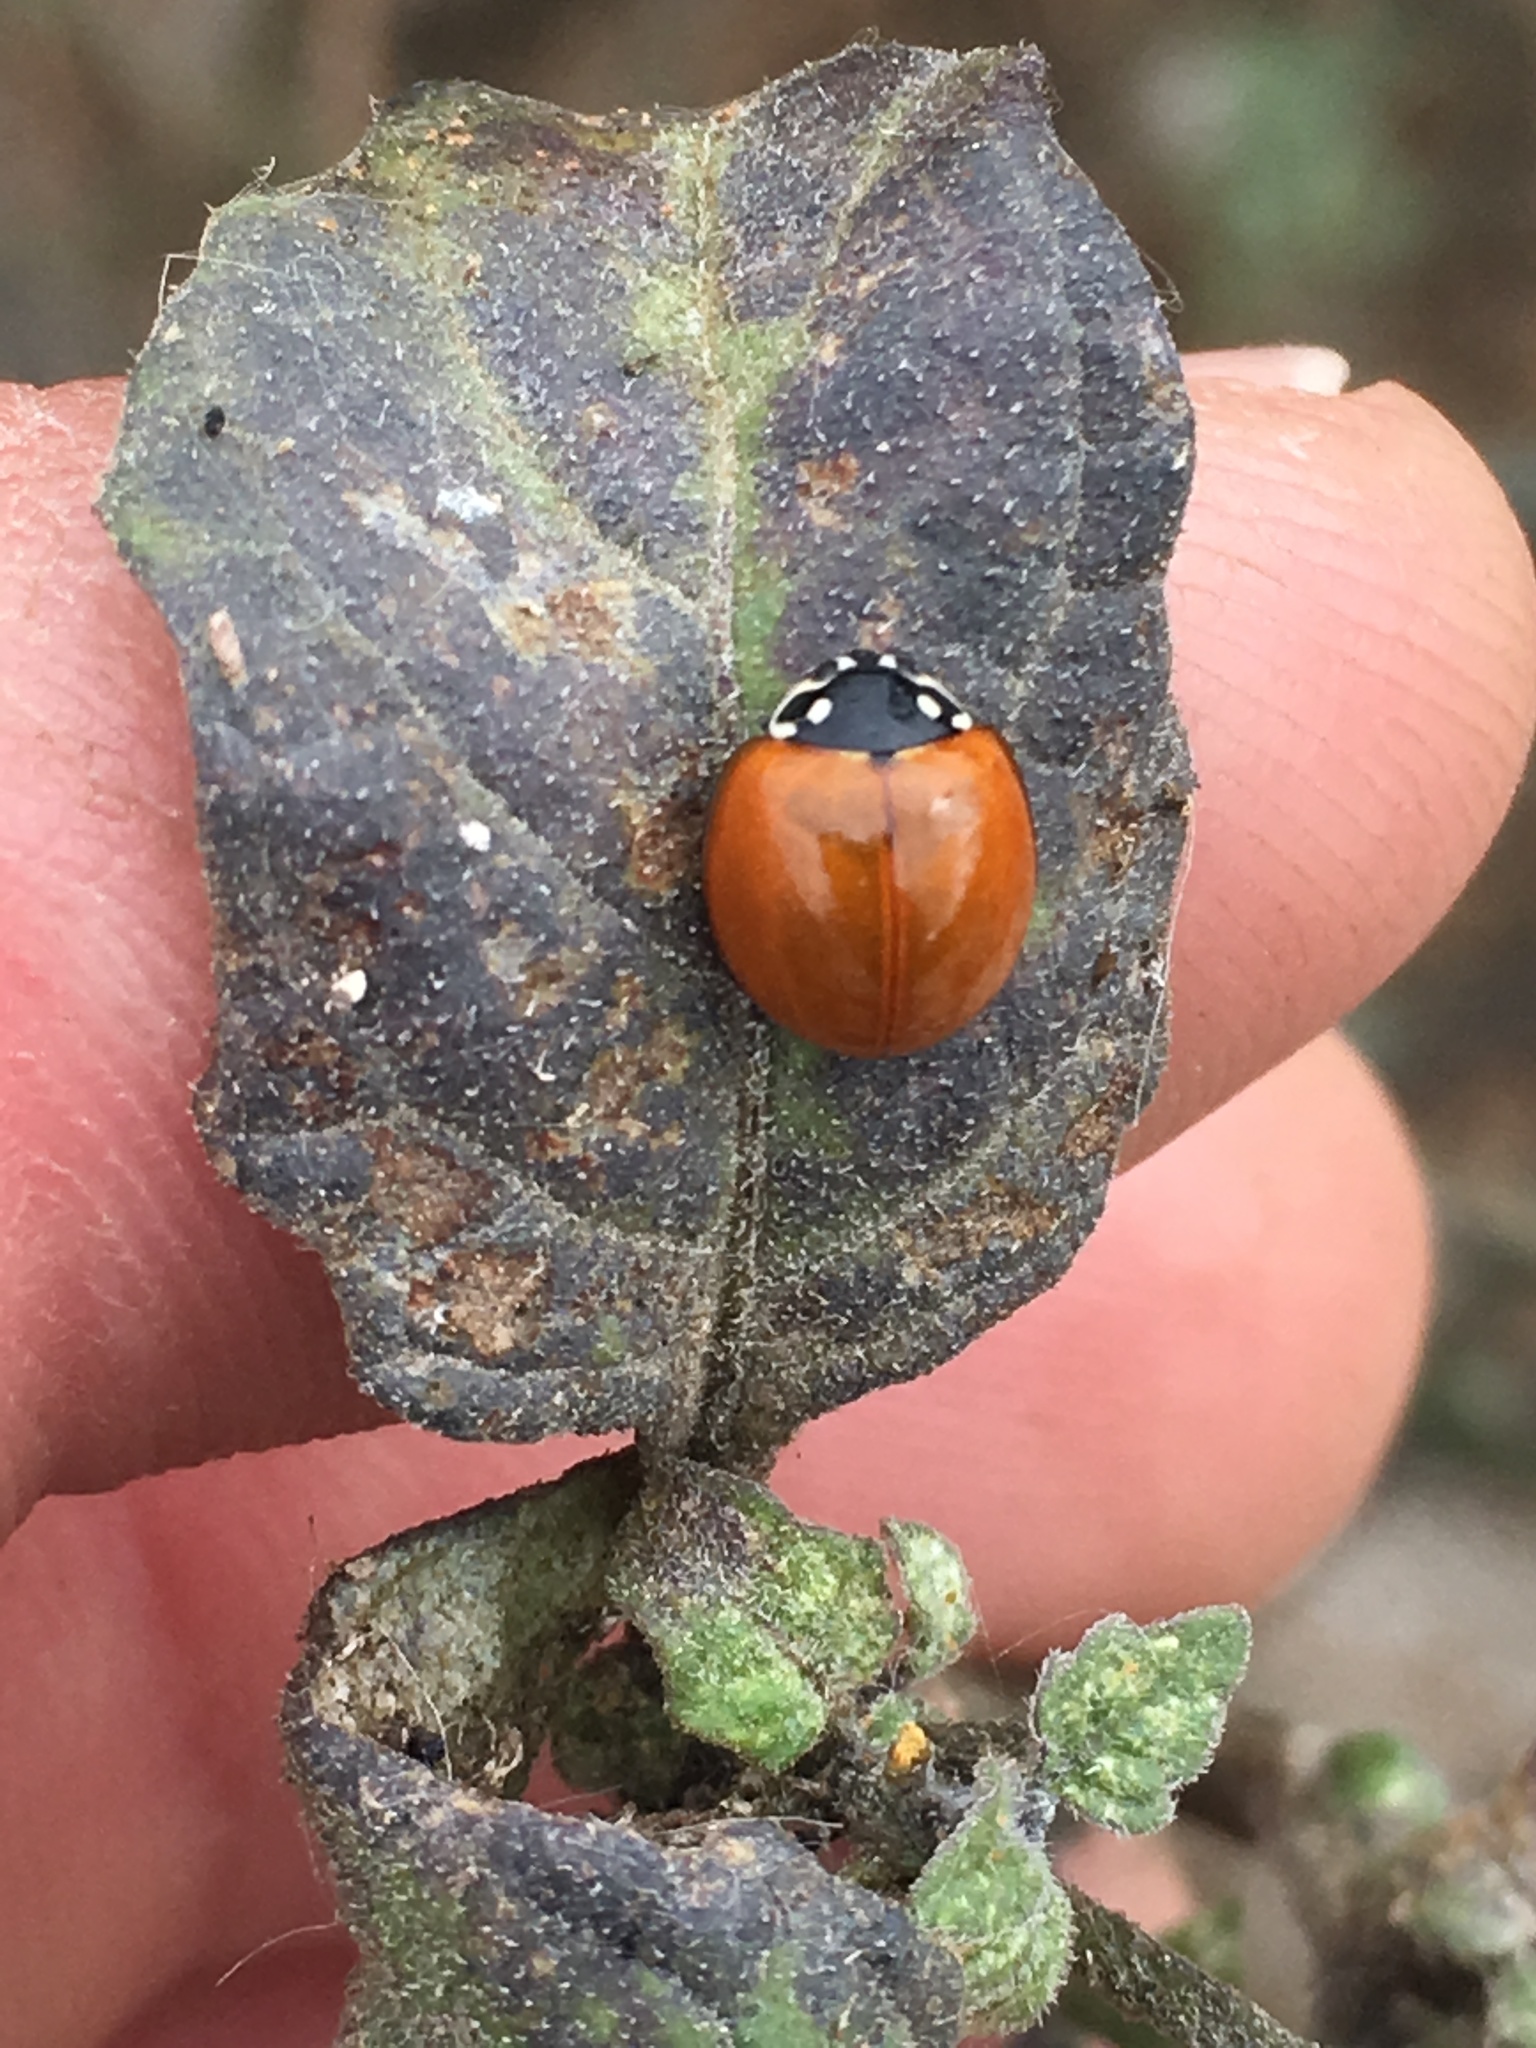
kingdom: Animalia
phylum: Arthropoda
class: Insecta
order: Coleoptera
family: Coccinellidae
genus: Cycloneda
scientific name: Cycloneda sanguinea
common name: Ladybird beetle
